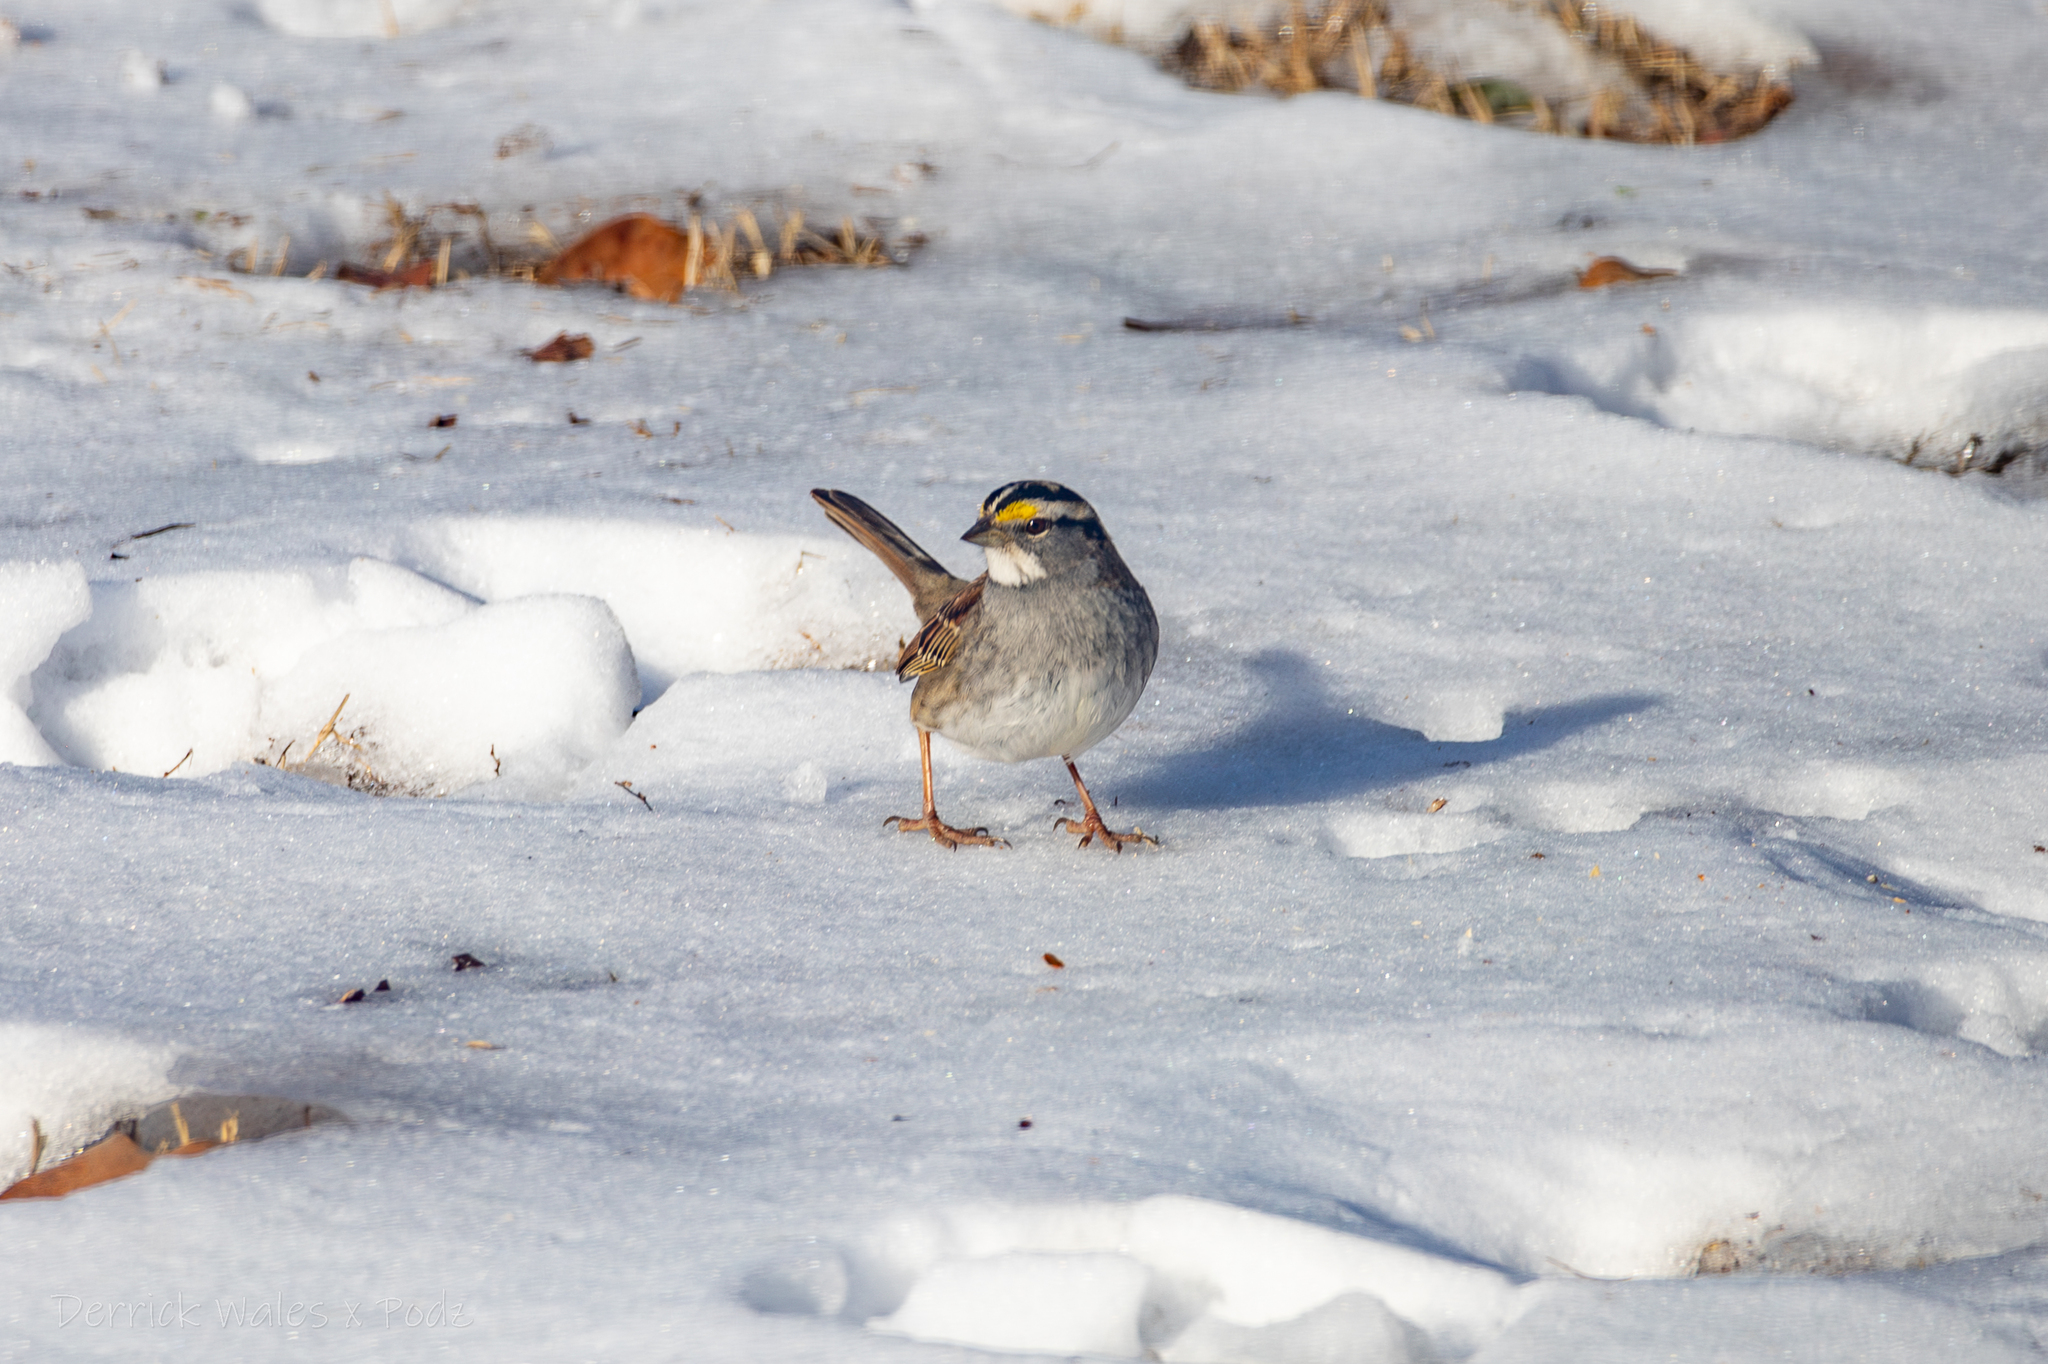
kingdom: Animalia
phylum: Chordata
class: Aves
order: Passeriformes
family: Passerellidae
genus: Zonotrichia
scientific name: Zonotrichia albicollis
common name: White-throated sparrow
